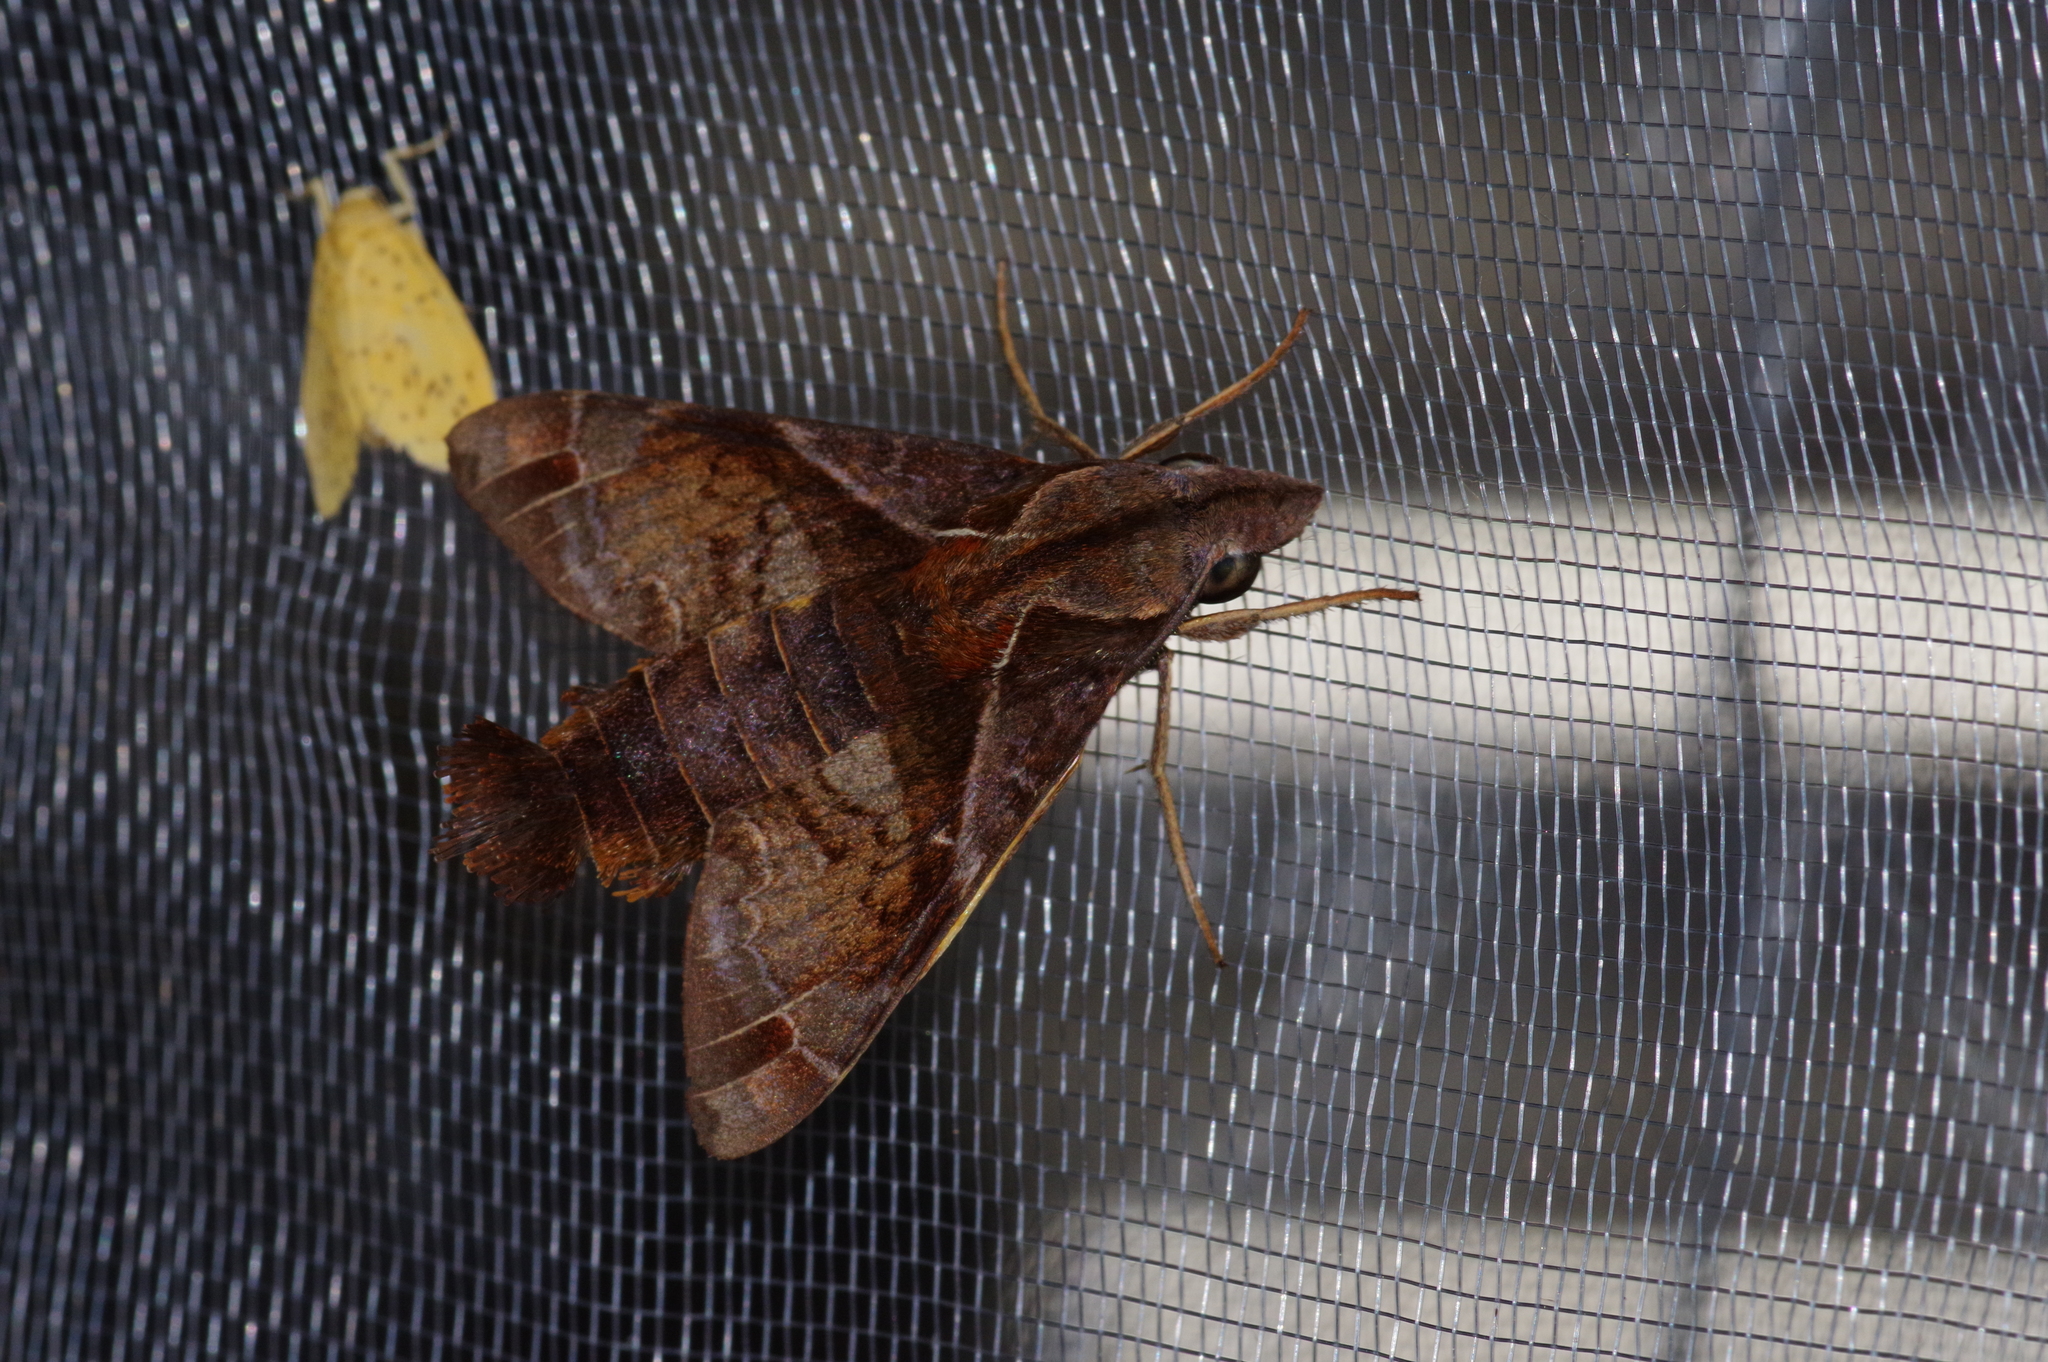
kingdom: Animalia
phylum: Arthropoda
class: Insecta
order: Lepidoptera
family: Sphingidae
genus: Macroglossum
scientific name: Macroglossum fritzei
